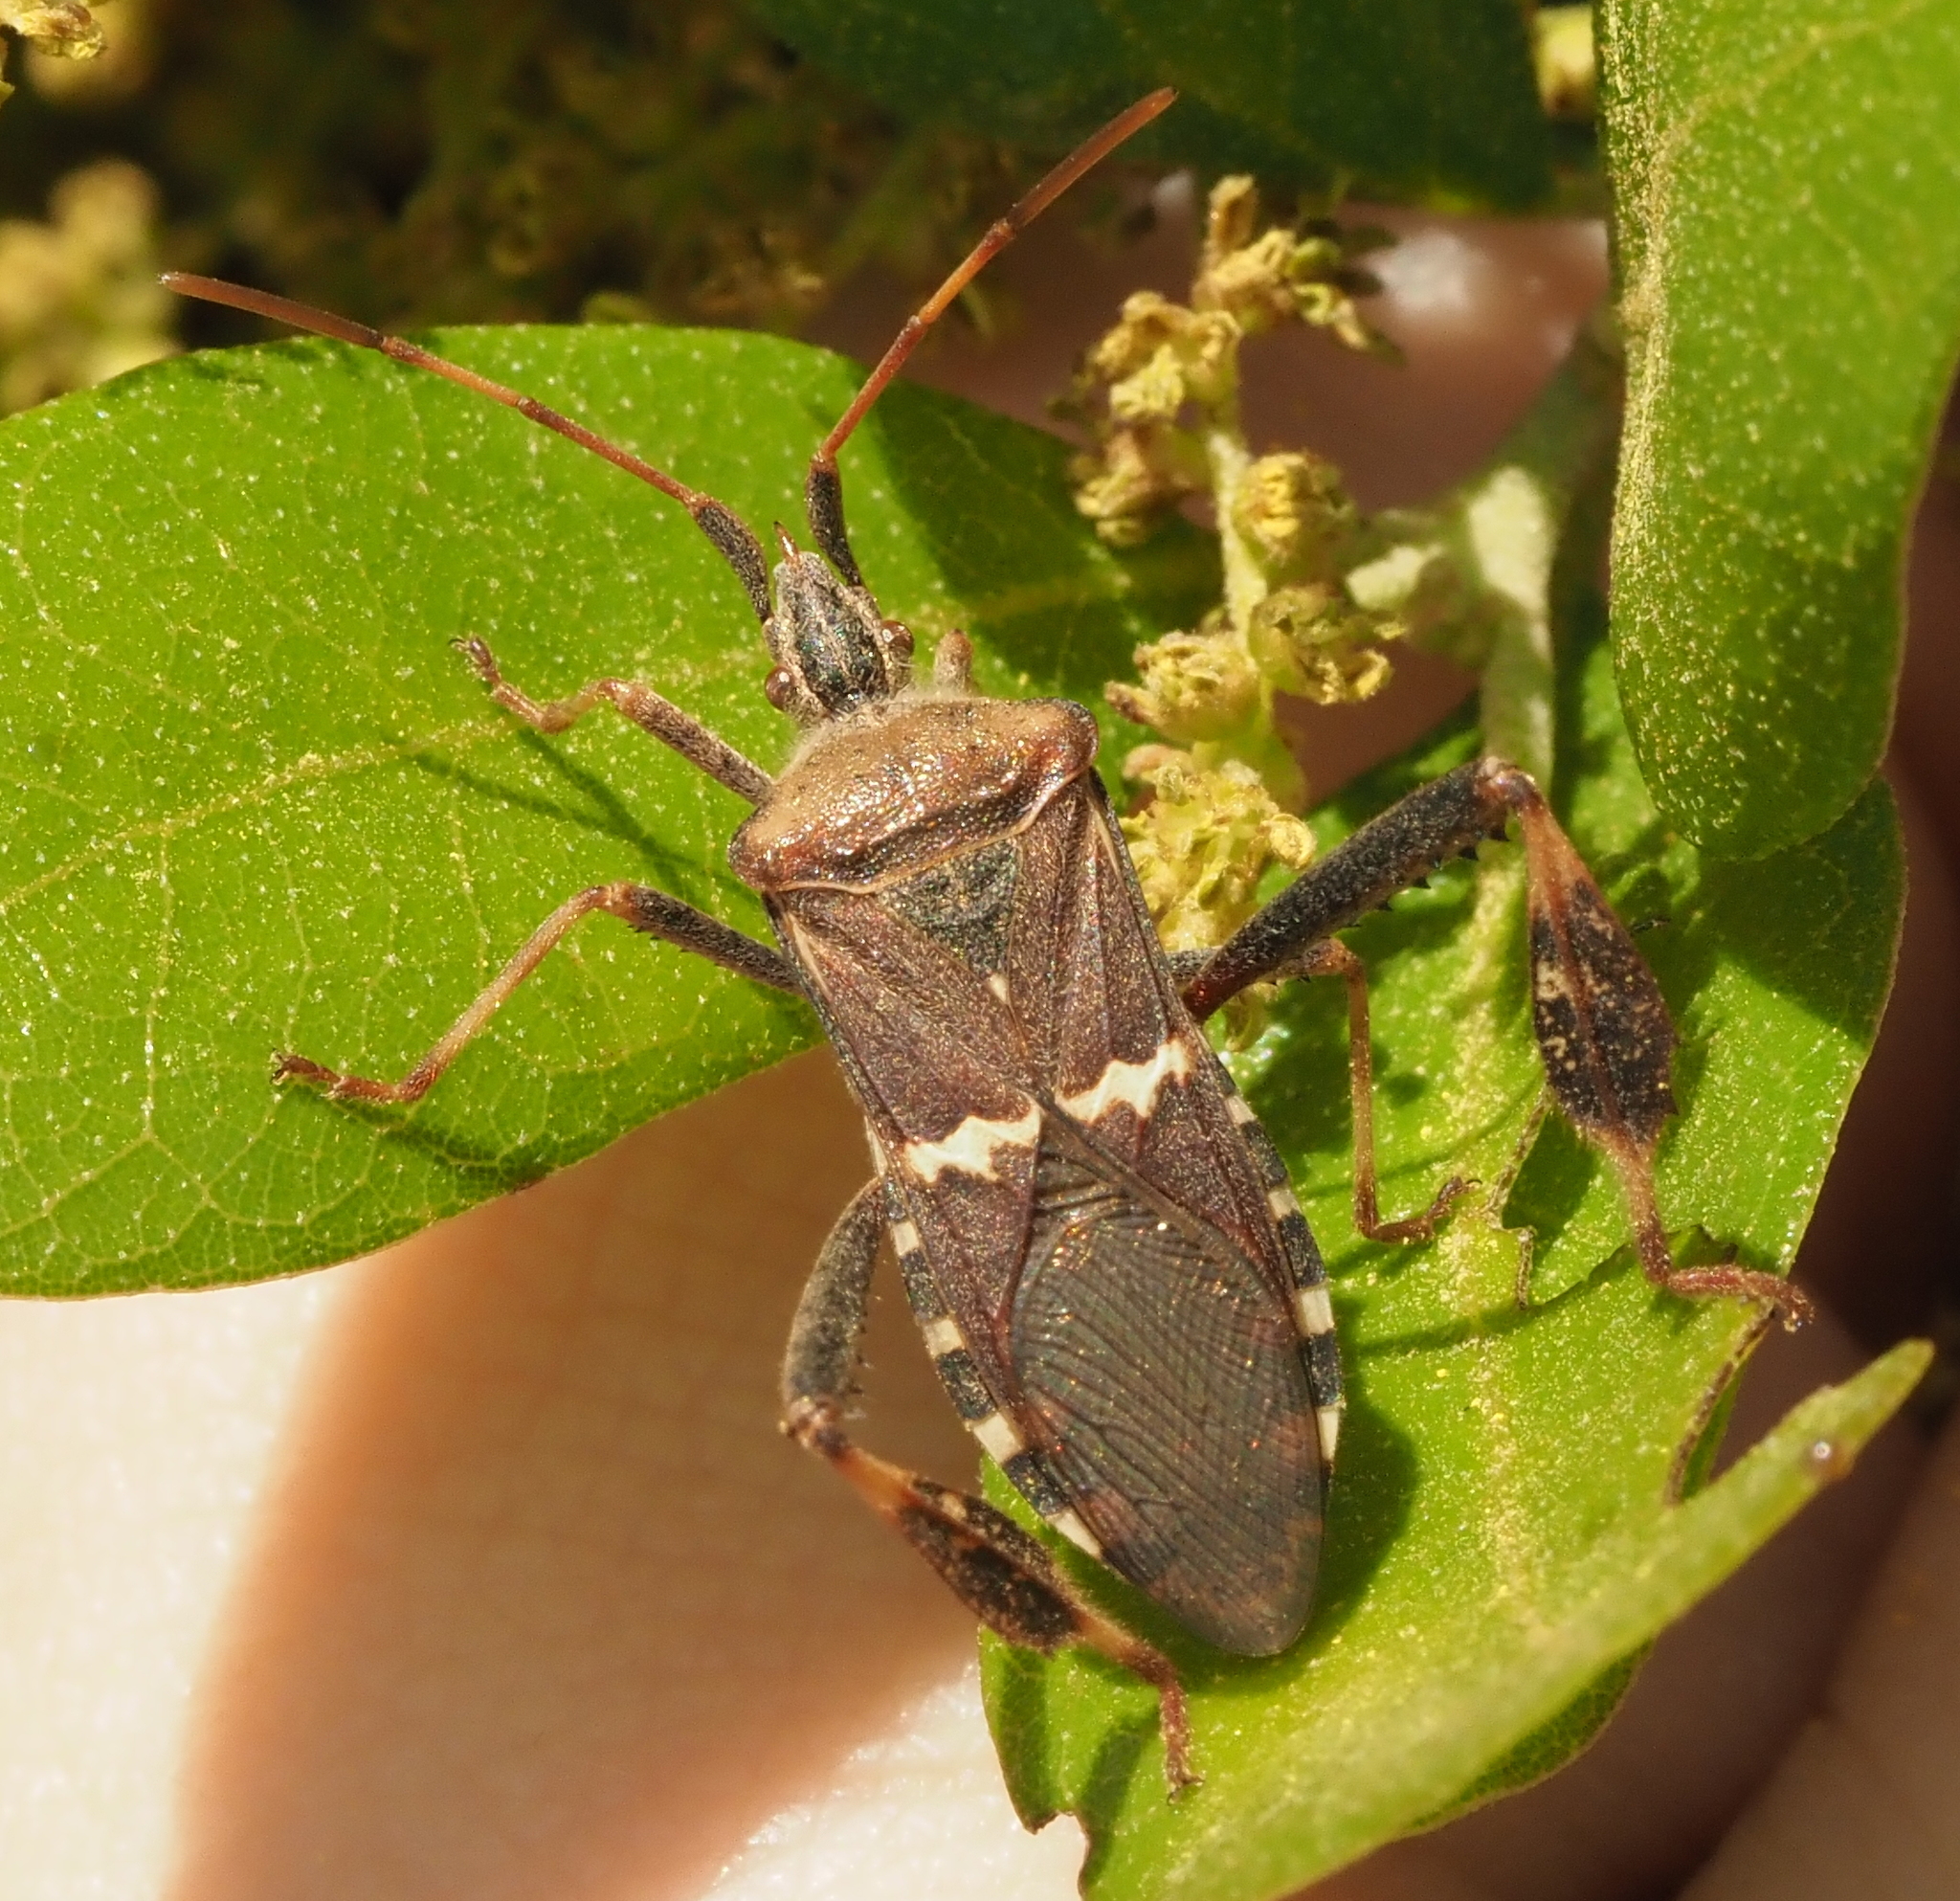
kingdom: Animalia
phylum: Arthropoda
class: Insecta
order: Hemiptera
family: Coreidae
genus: Leptoglossus
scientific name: Leptoglossus clypealis
